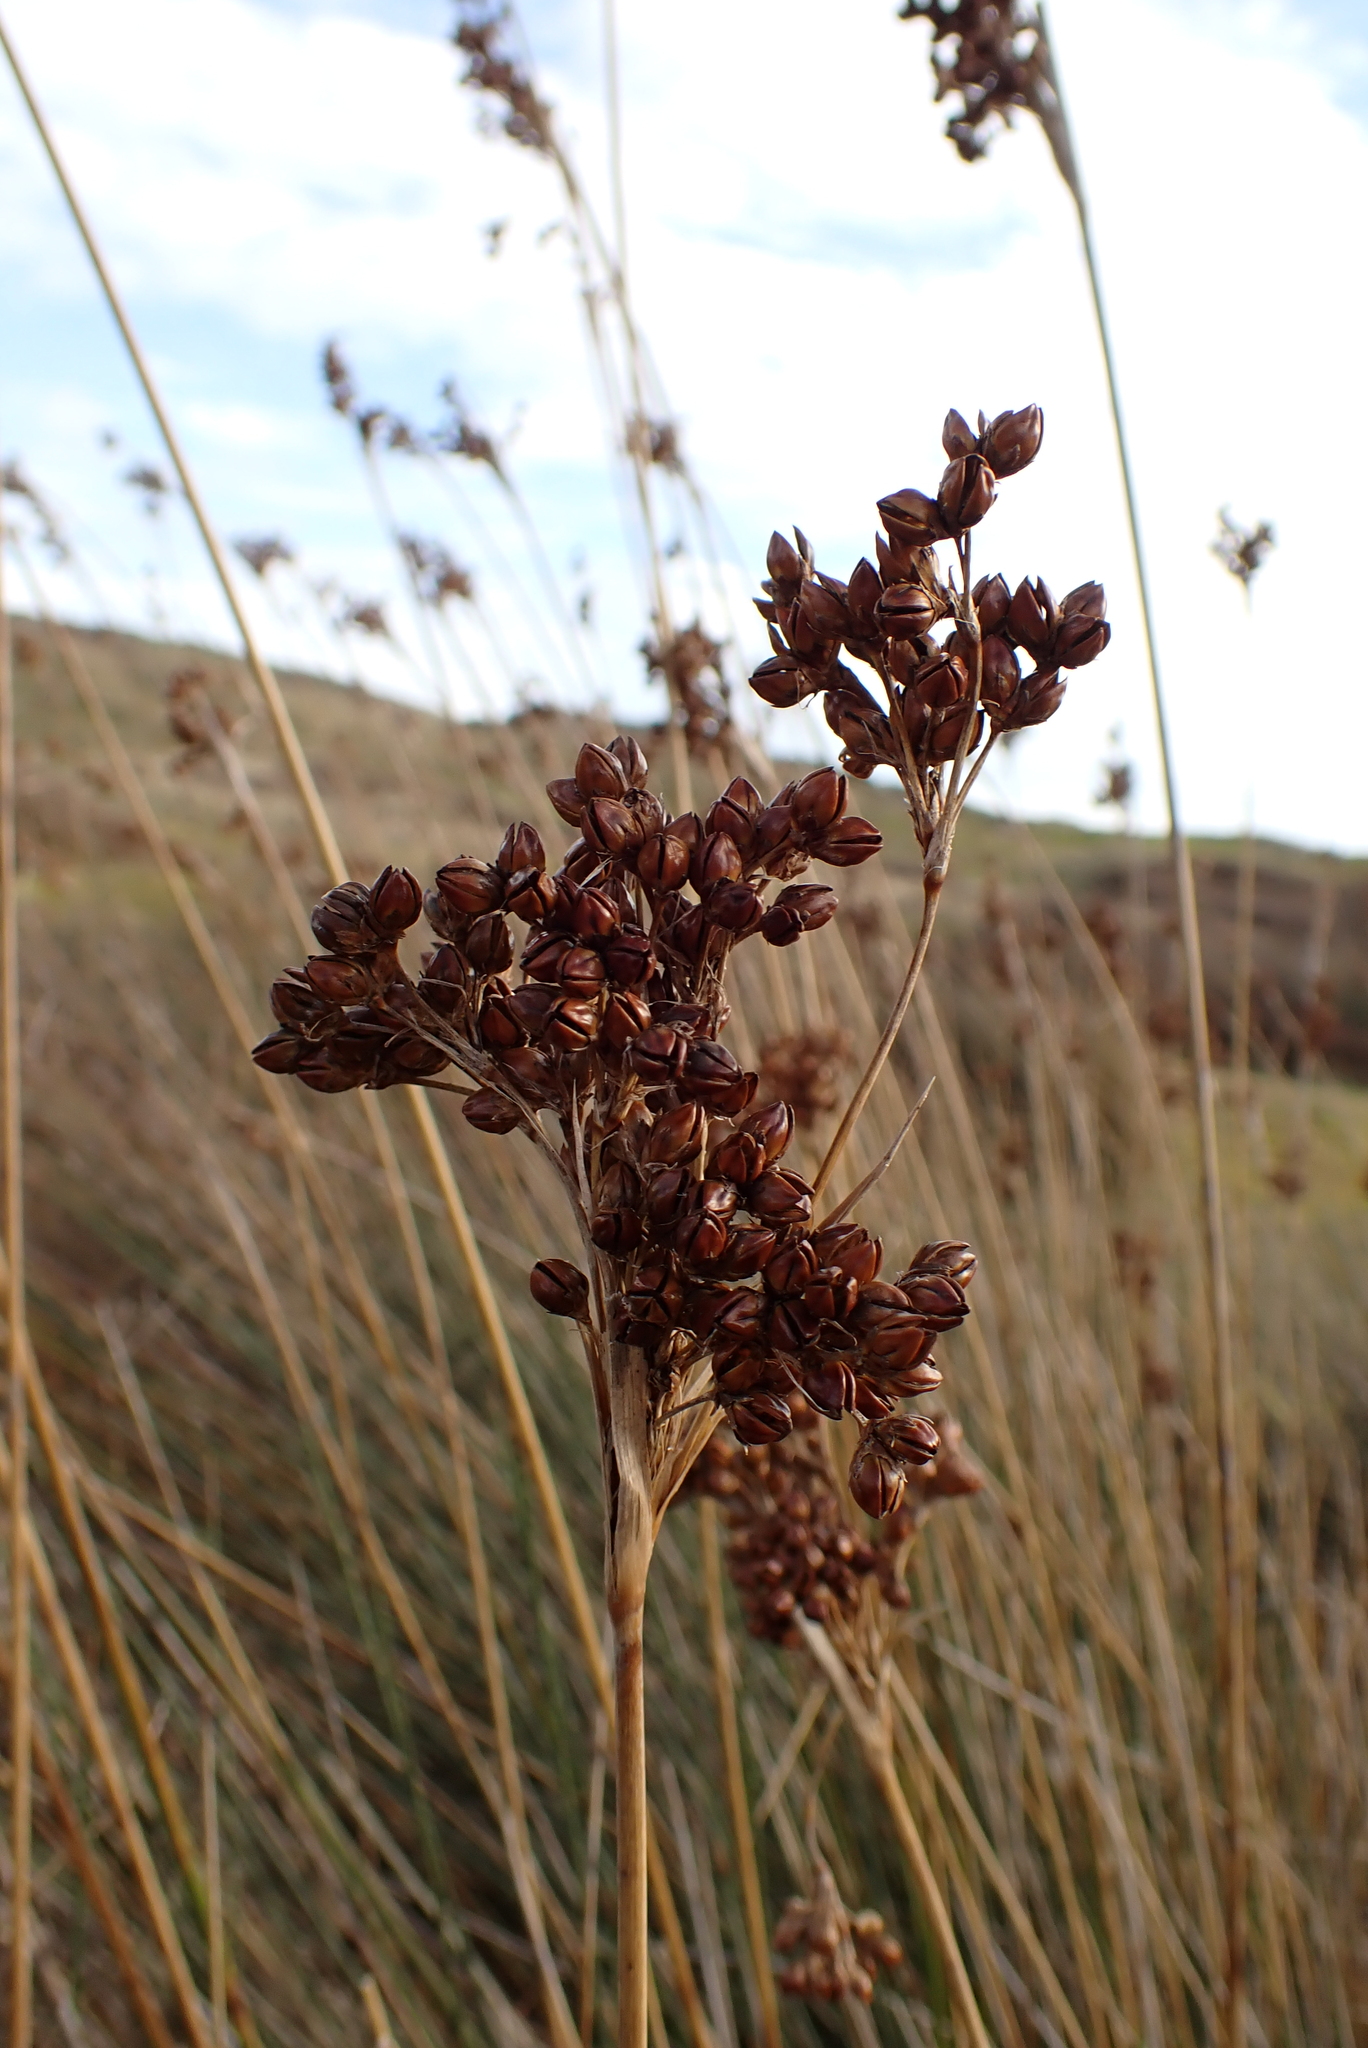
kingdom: Plantae
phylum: Tracheophyta
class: Liliopsida
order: Poales
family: Juncaceae
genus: Juncus
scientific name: Juncus acutus
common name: Sharp rush
